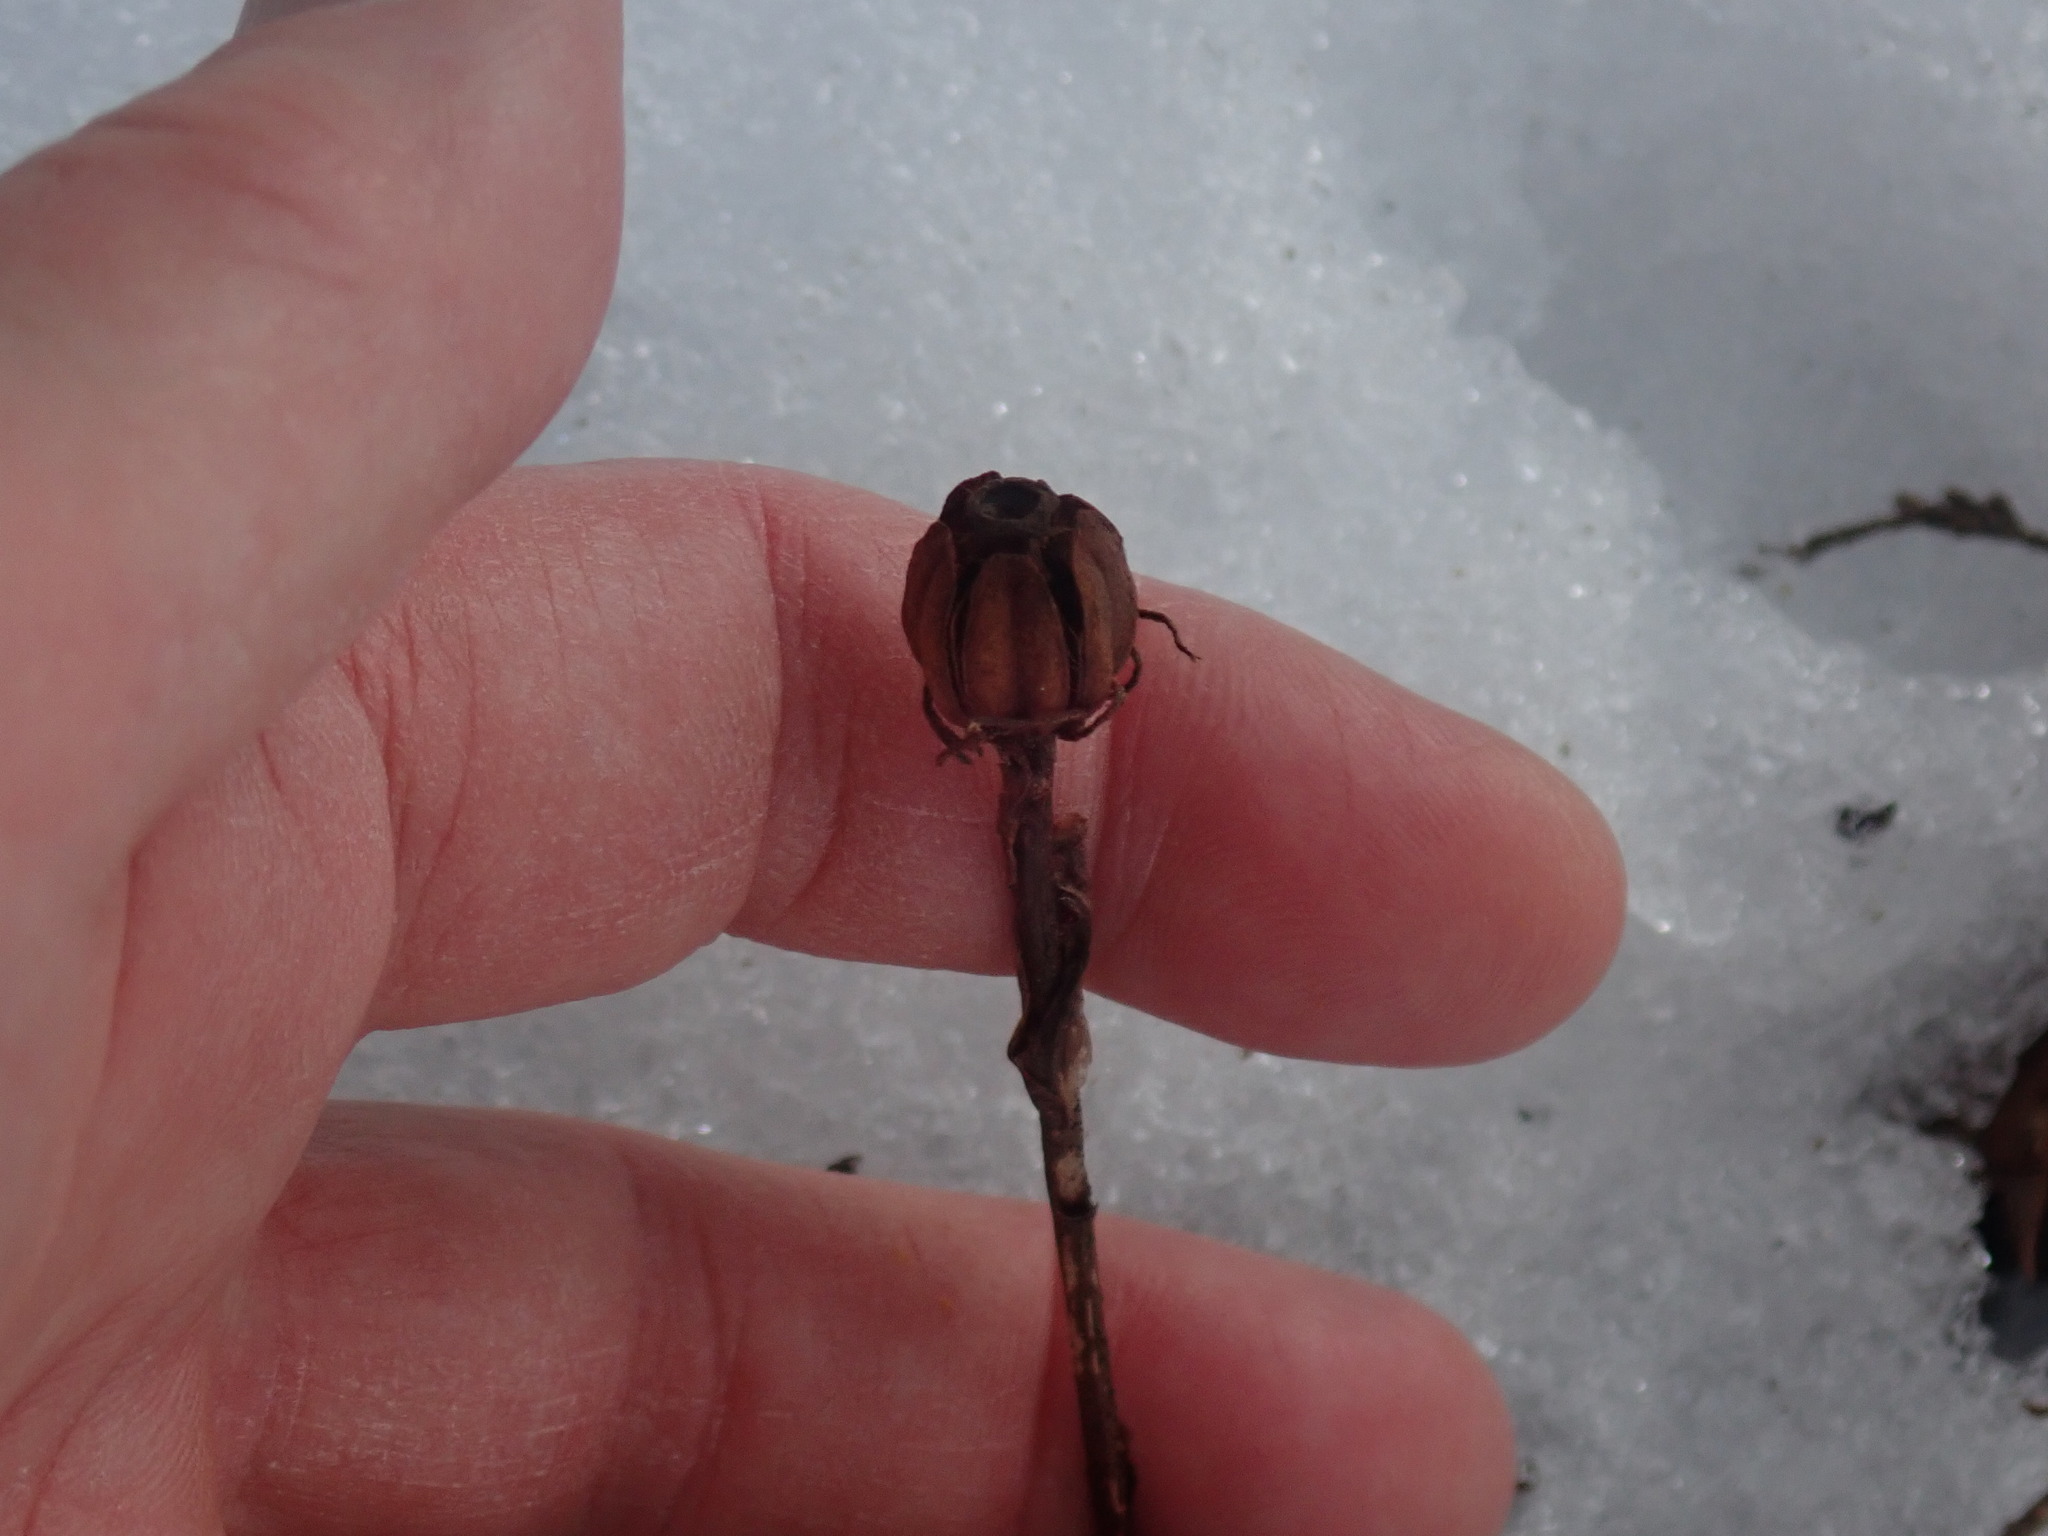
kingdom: Plantae
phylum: Tracheophyta
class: Magnoliopsida
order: Ericales
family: Ericaceae
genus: Monotropa
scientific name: Monotropa uniflora
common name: Convulsion root
